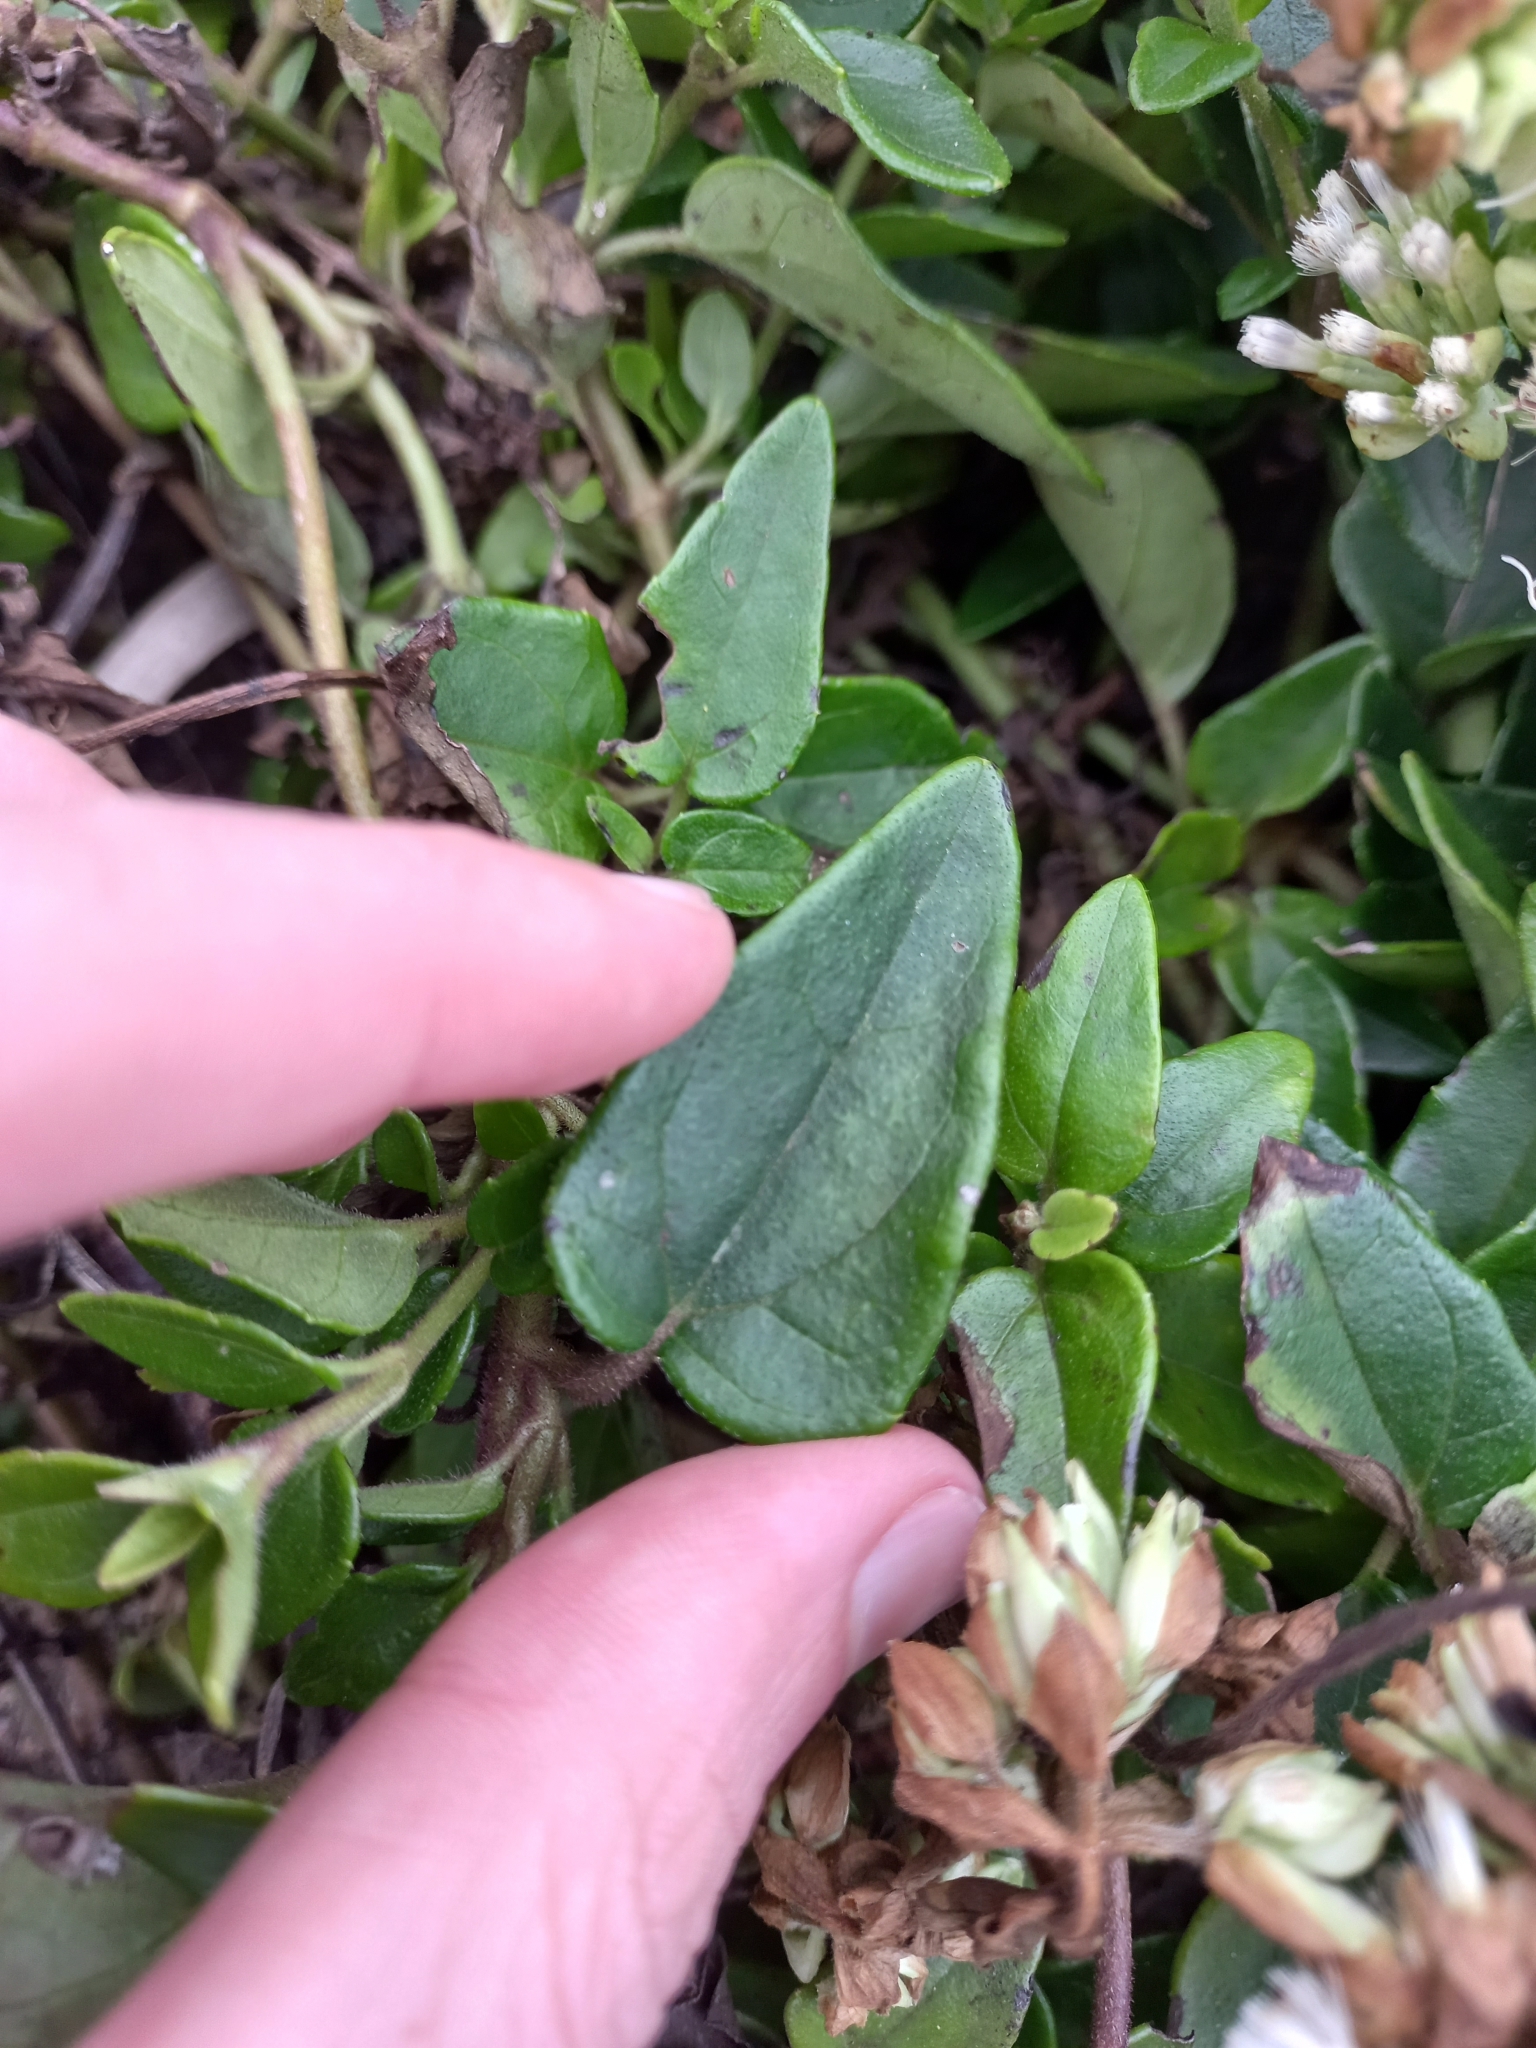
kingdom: Plantae
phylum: Tracheophyta
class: Magnoliopsida
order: Asterales
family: Asteraceae
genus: Mikania
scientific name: Mikania involucrata
